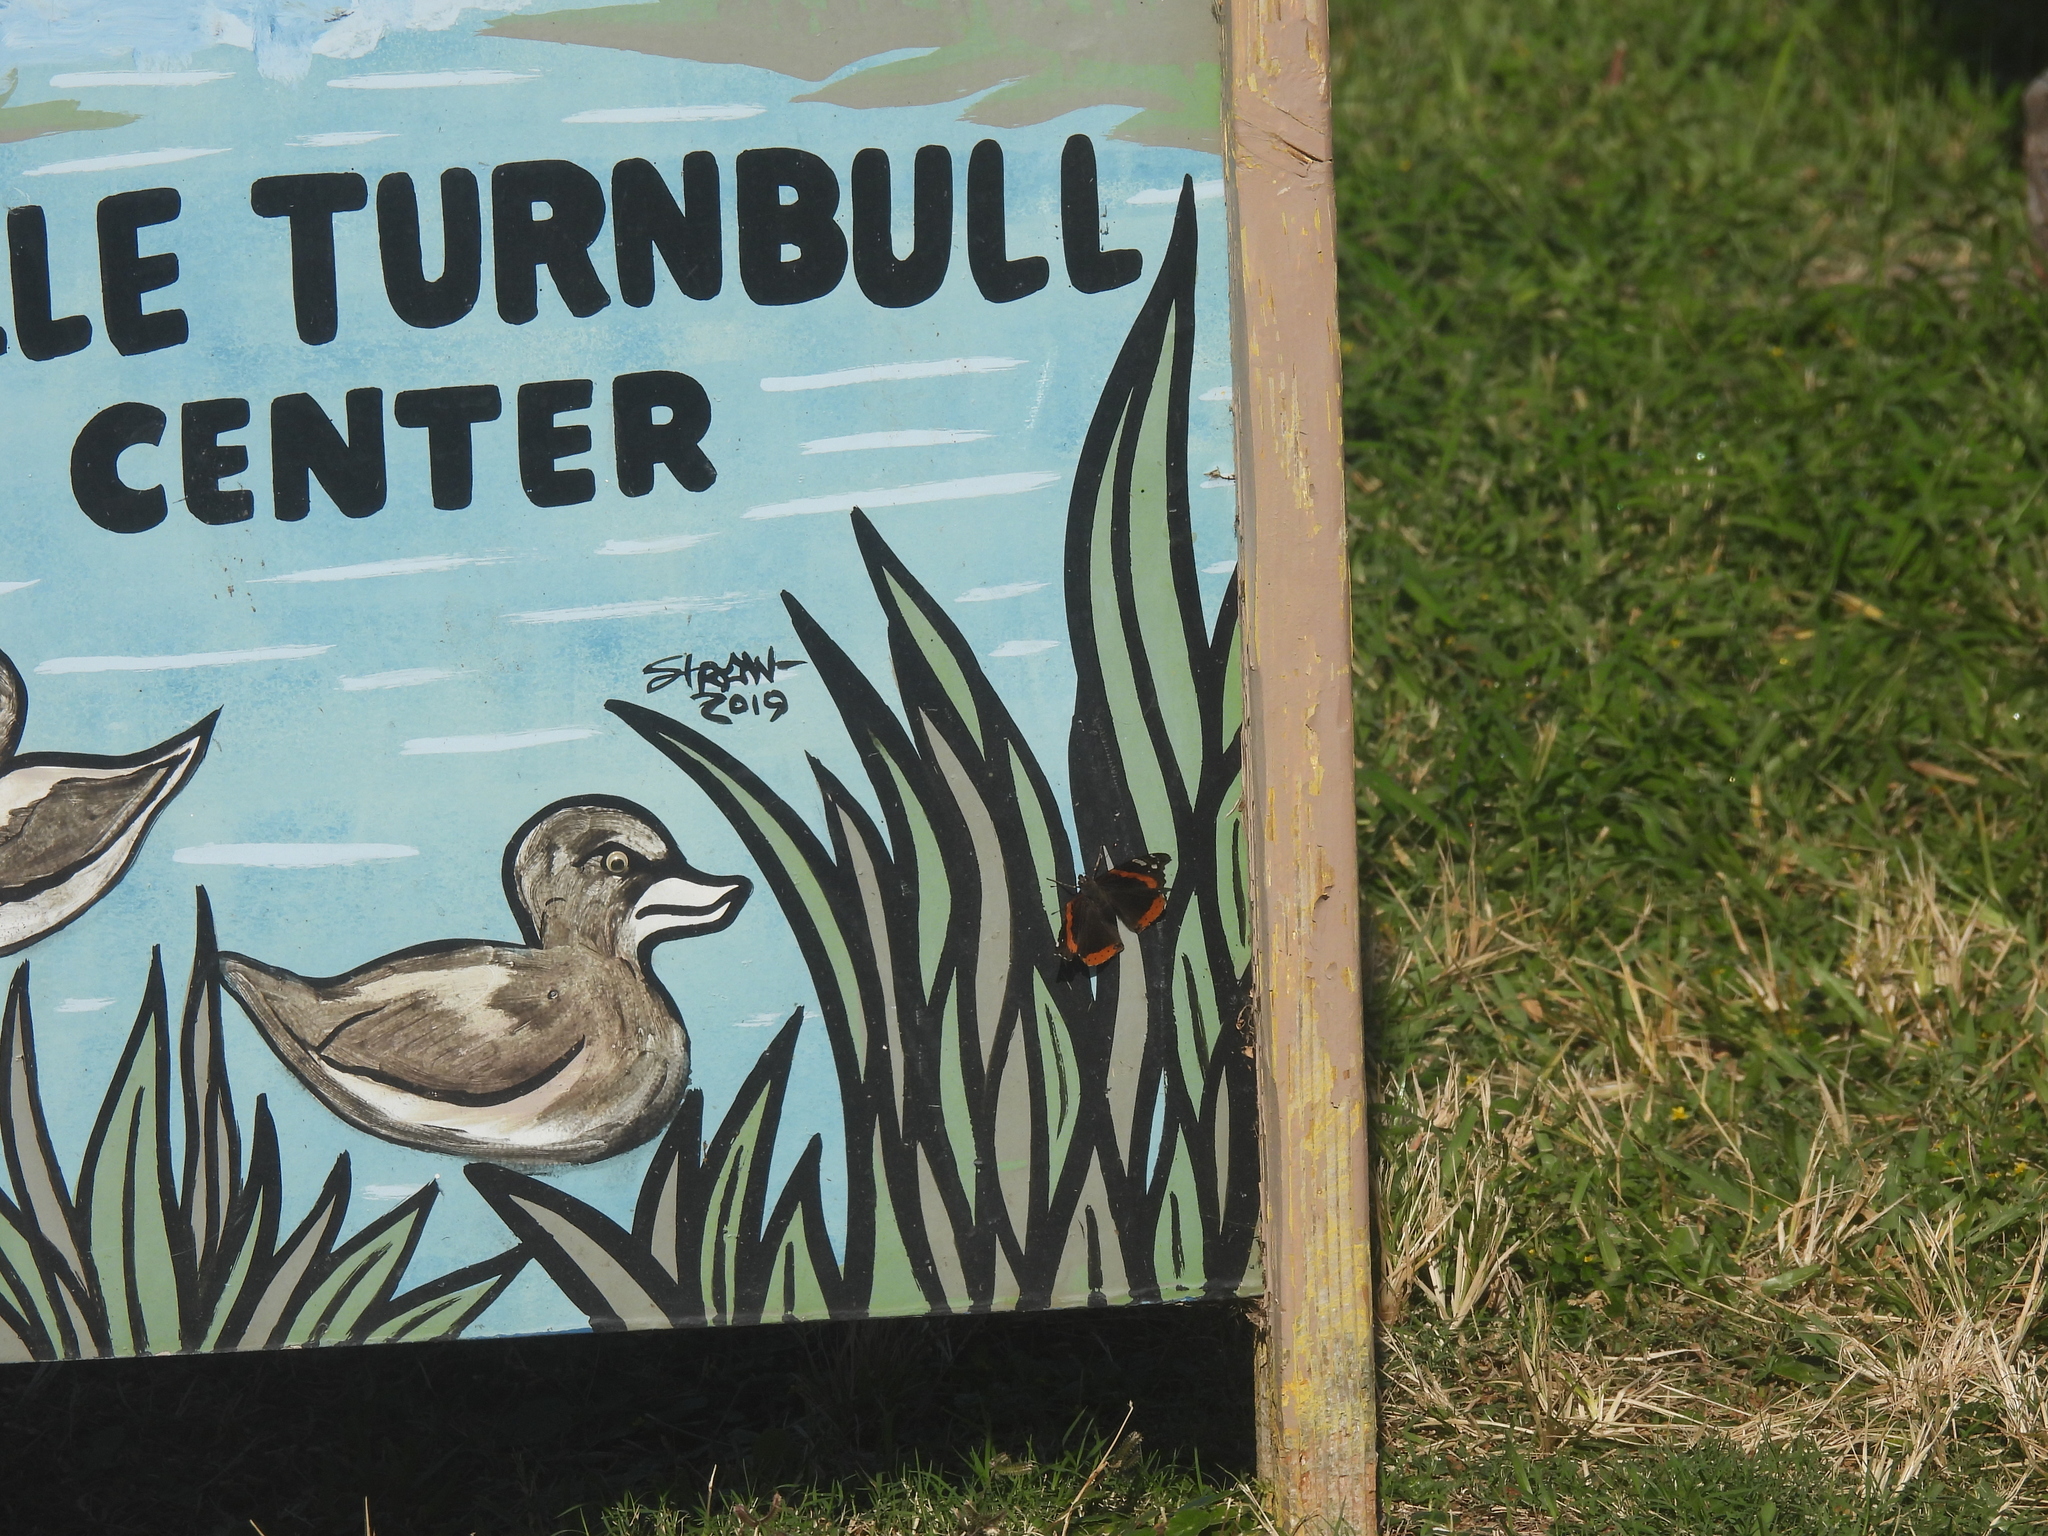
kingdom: Animalia
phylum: Arthropoda
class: Insecta
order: Lepidoptera
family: Nymphalidae
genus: Vanessa
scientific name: Vanessa atalanta
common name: Red admiral
